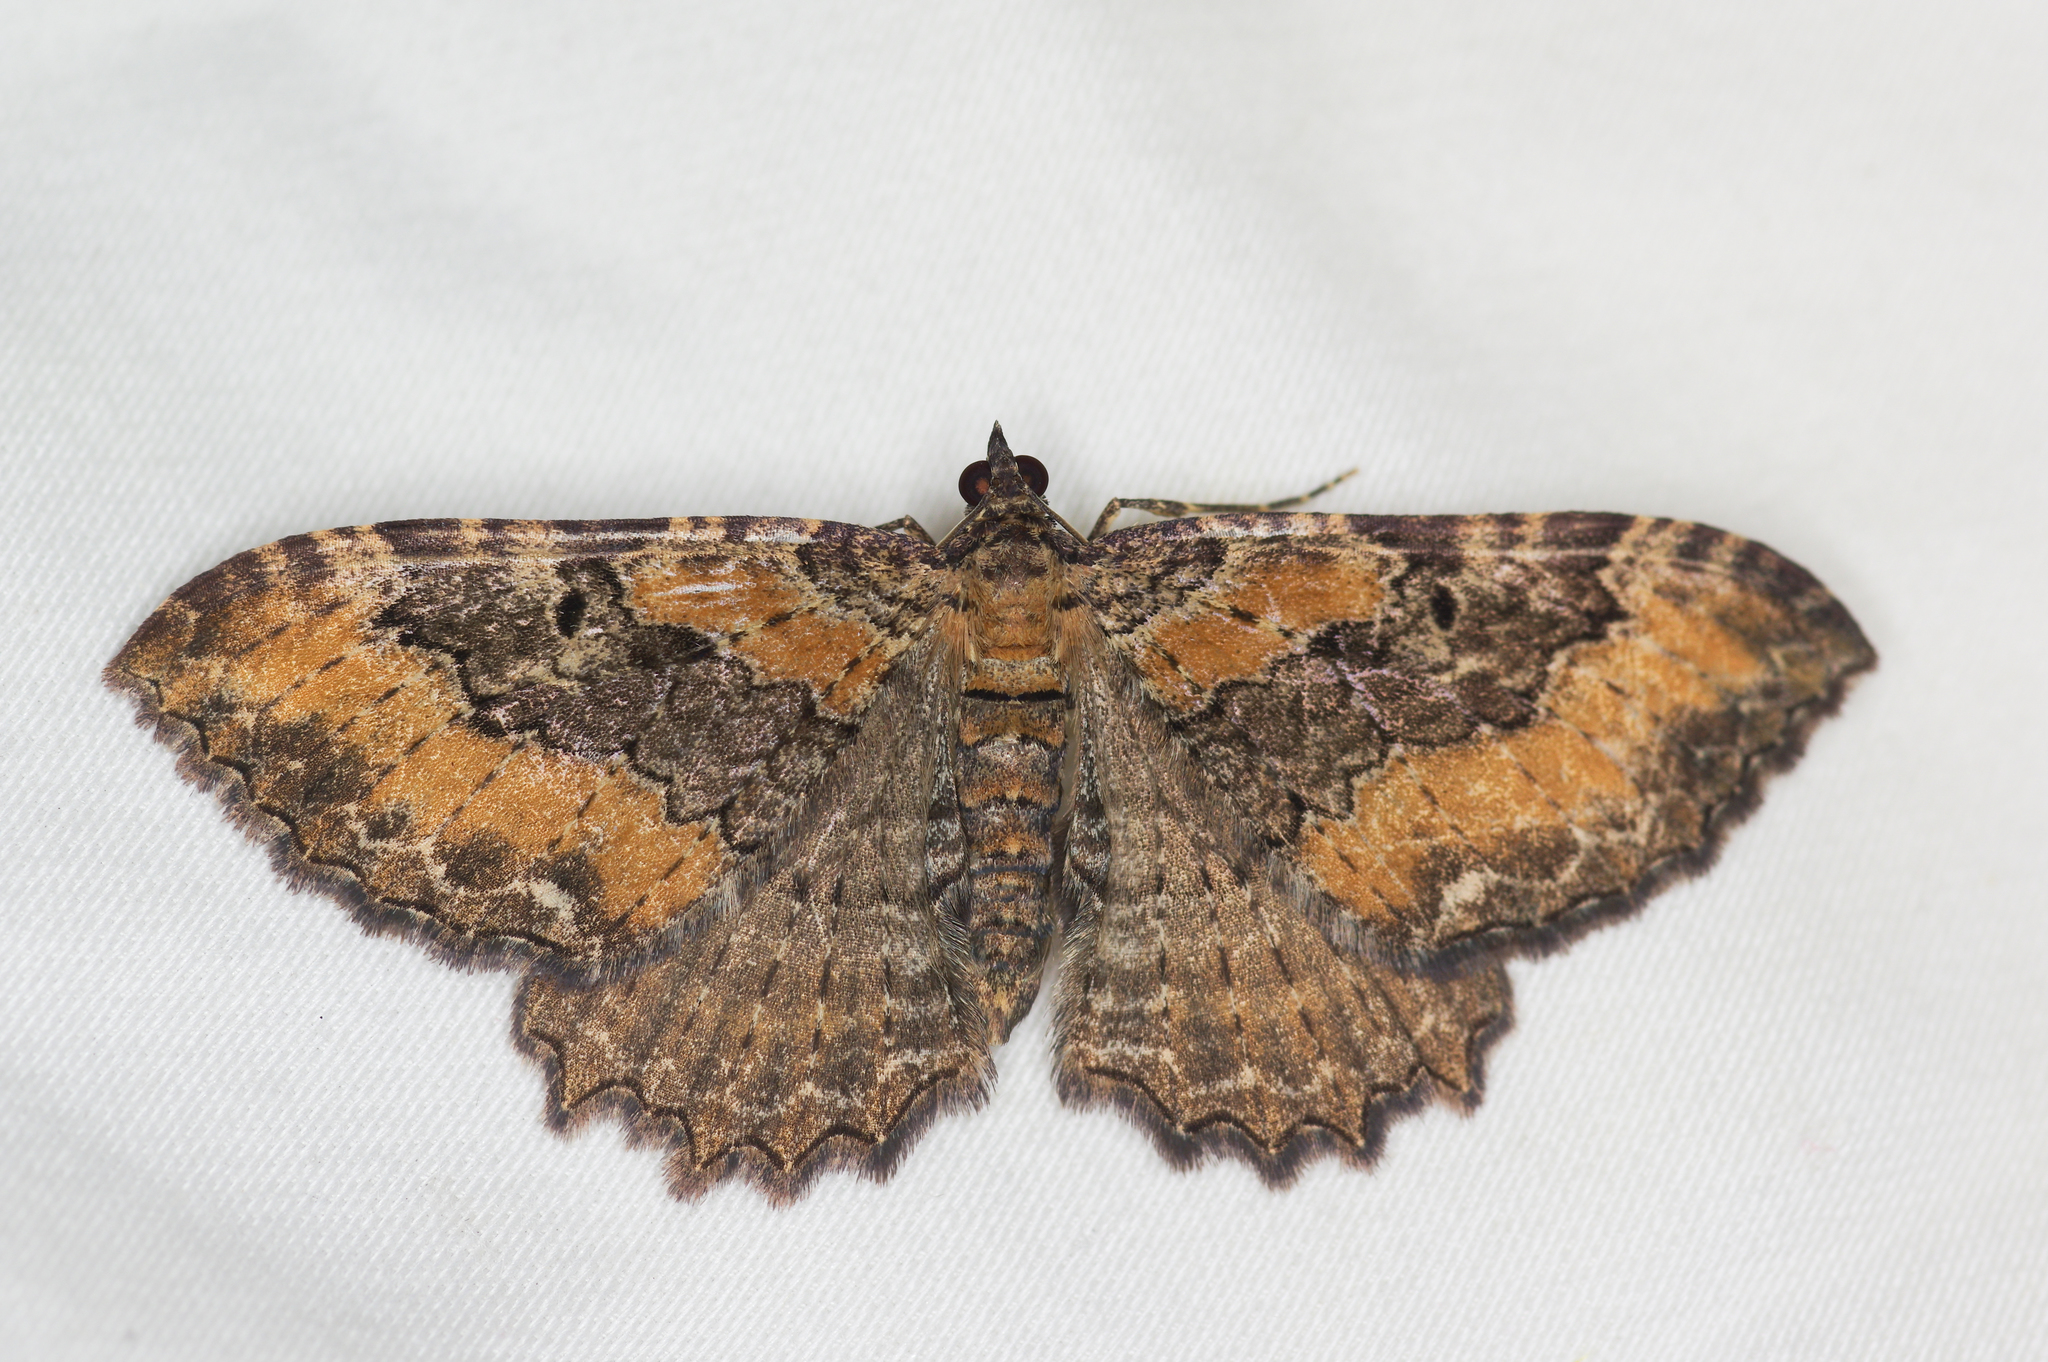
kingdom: Animalia
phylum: Arthropoda
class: Insecta
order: Lepidoptera
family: Geometridae
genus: Rheumaptera
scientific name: Rheumaptera
